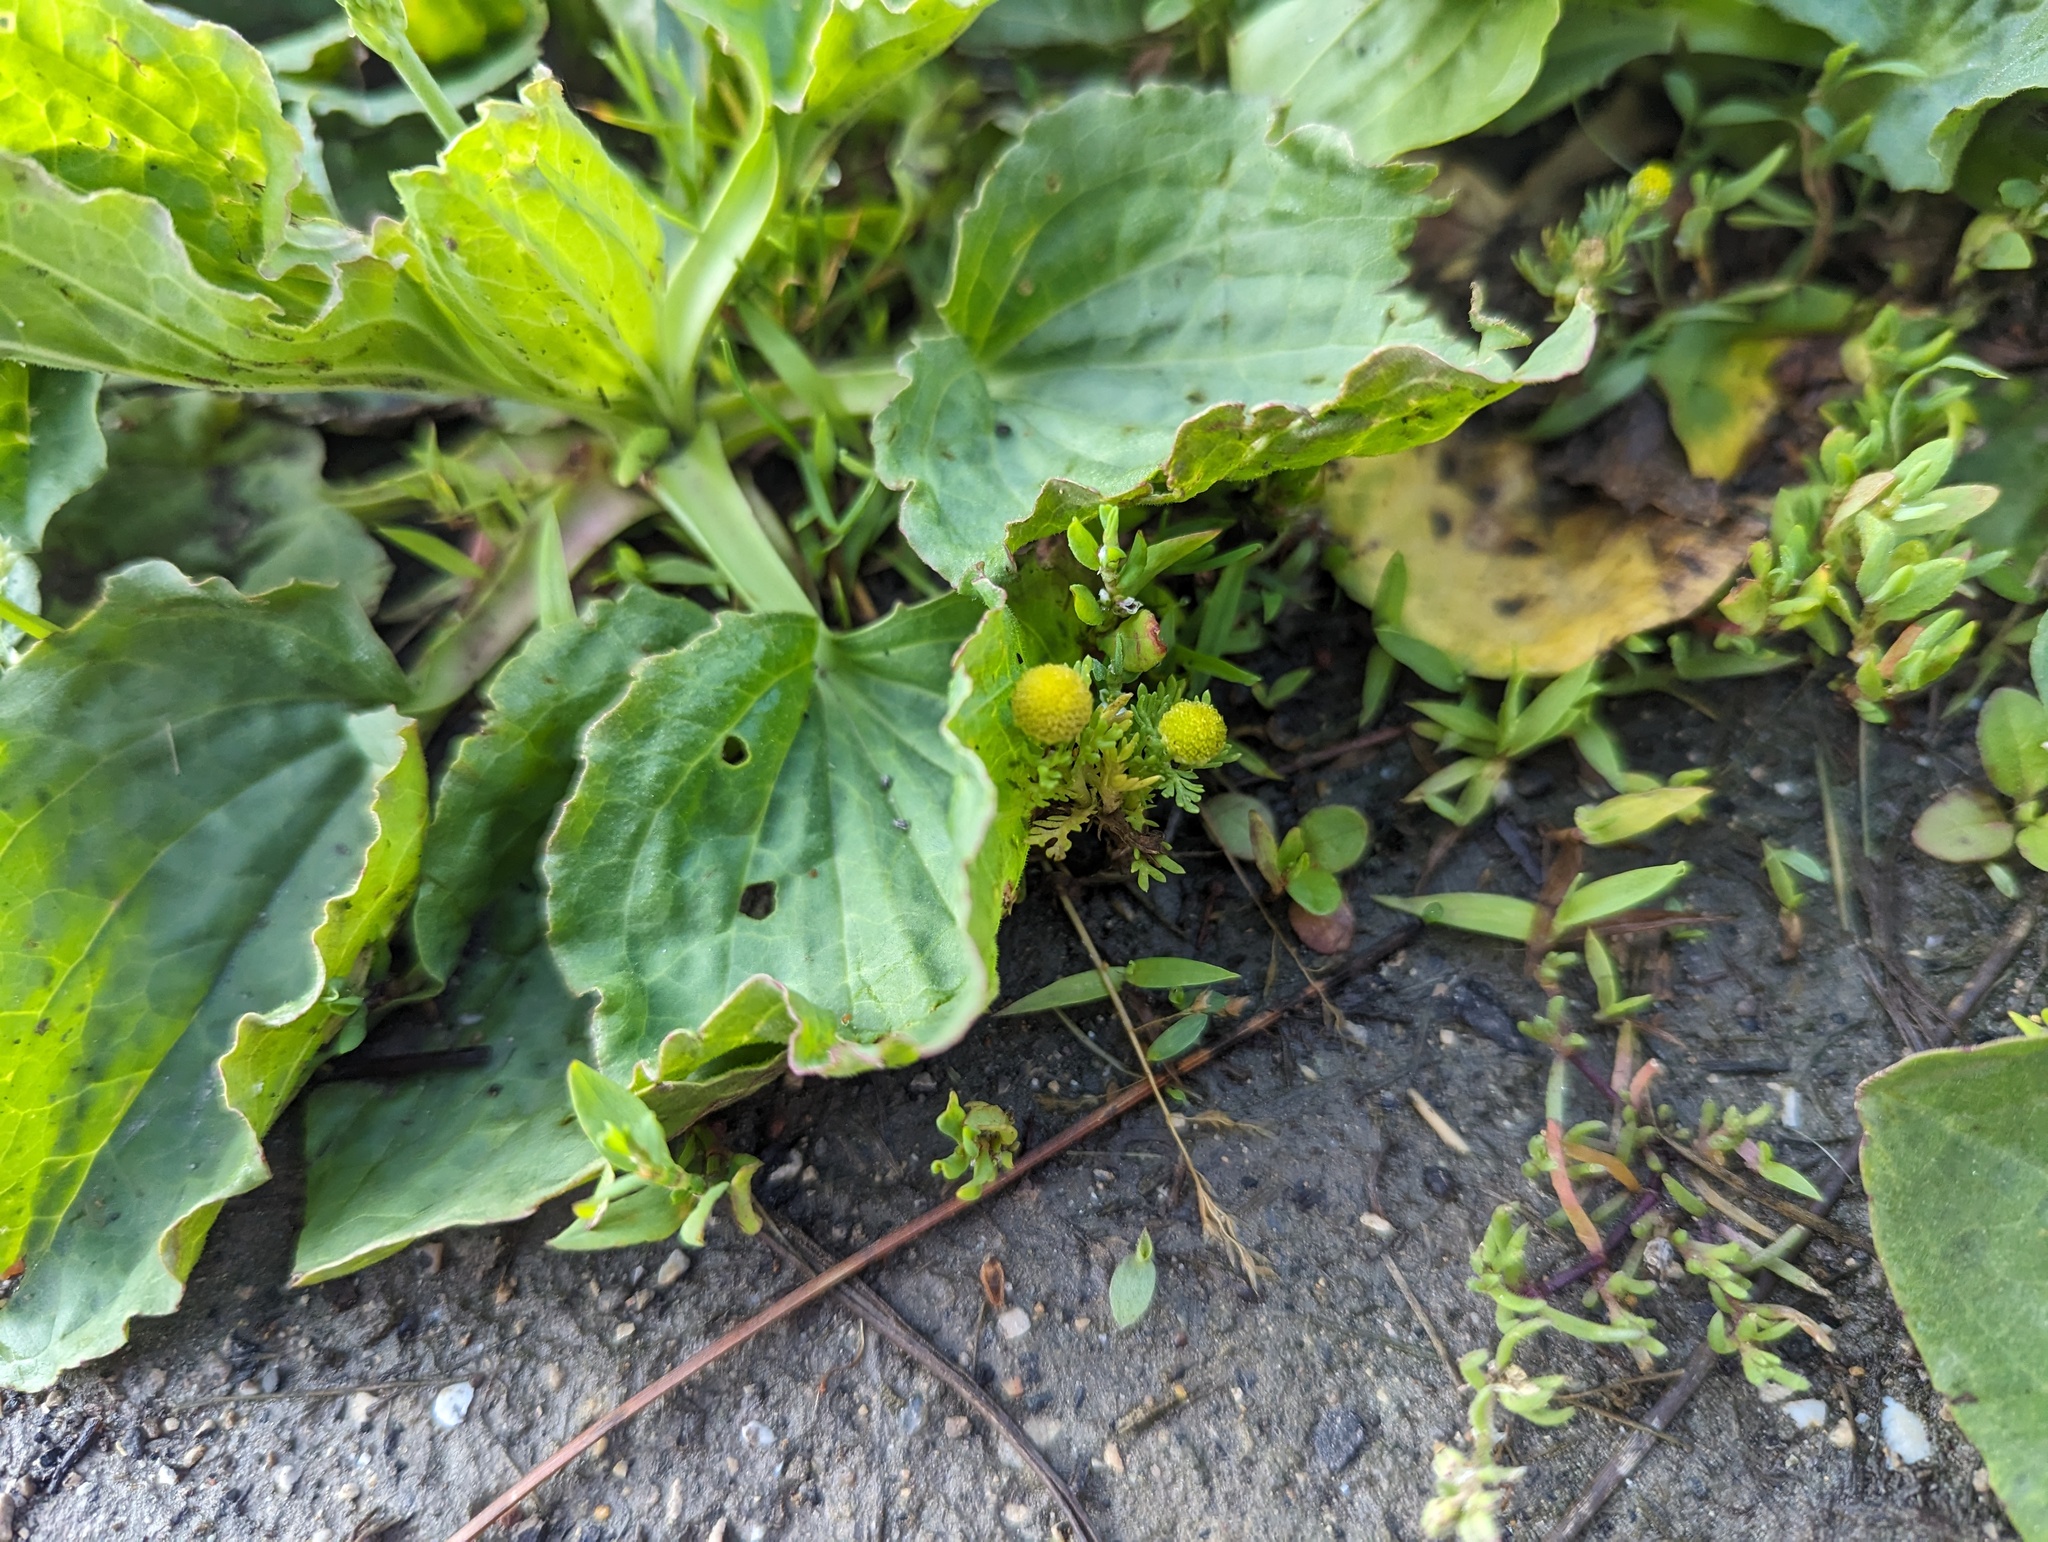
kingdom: Plantae
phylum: Tracheophyta
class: Magnoliopsida
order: Asterales
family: Asteraceae
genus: Matricaria
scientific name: Matricaria discoidea
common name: Disc mayweed
